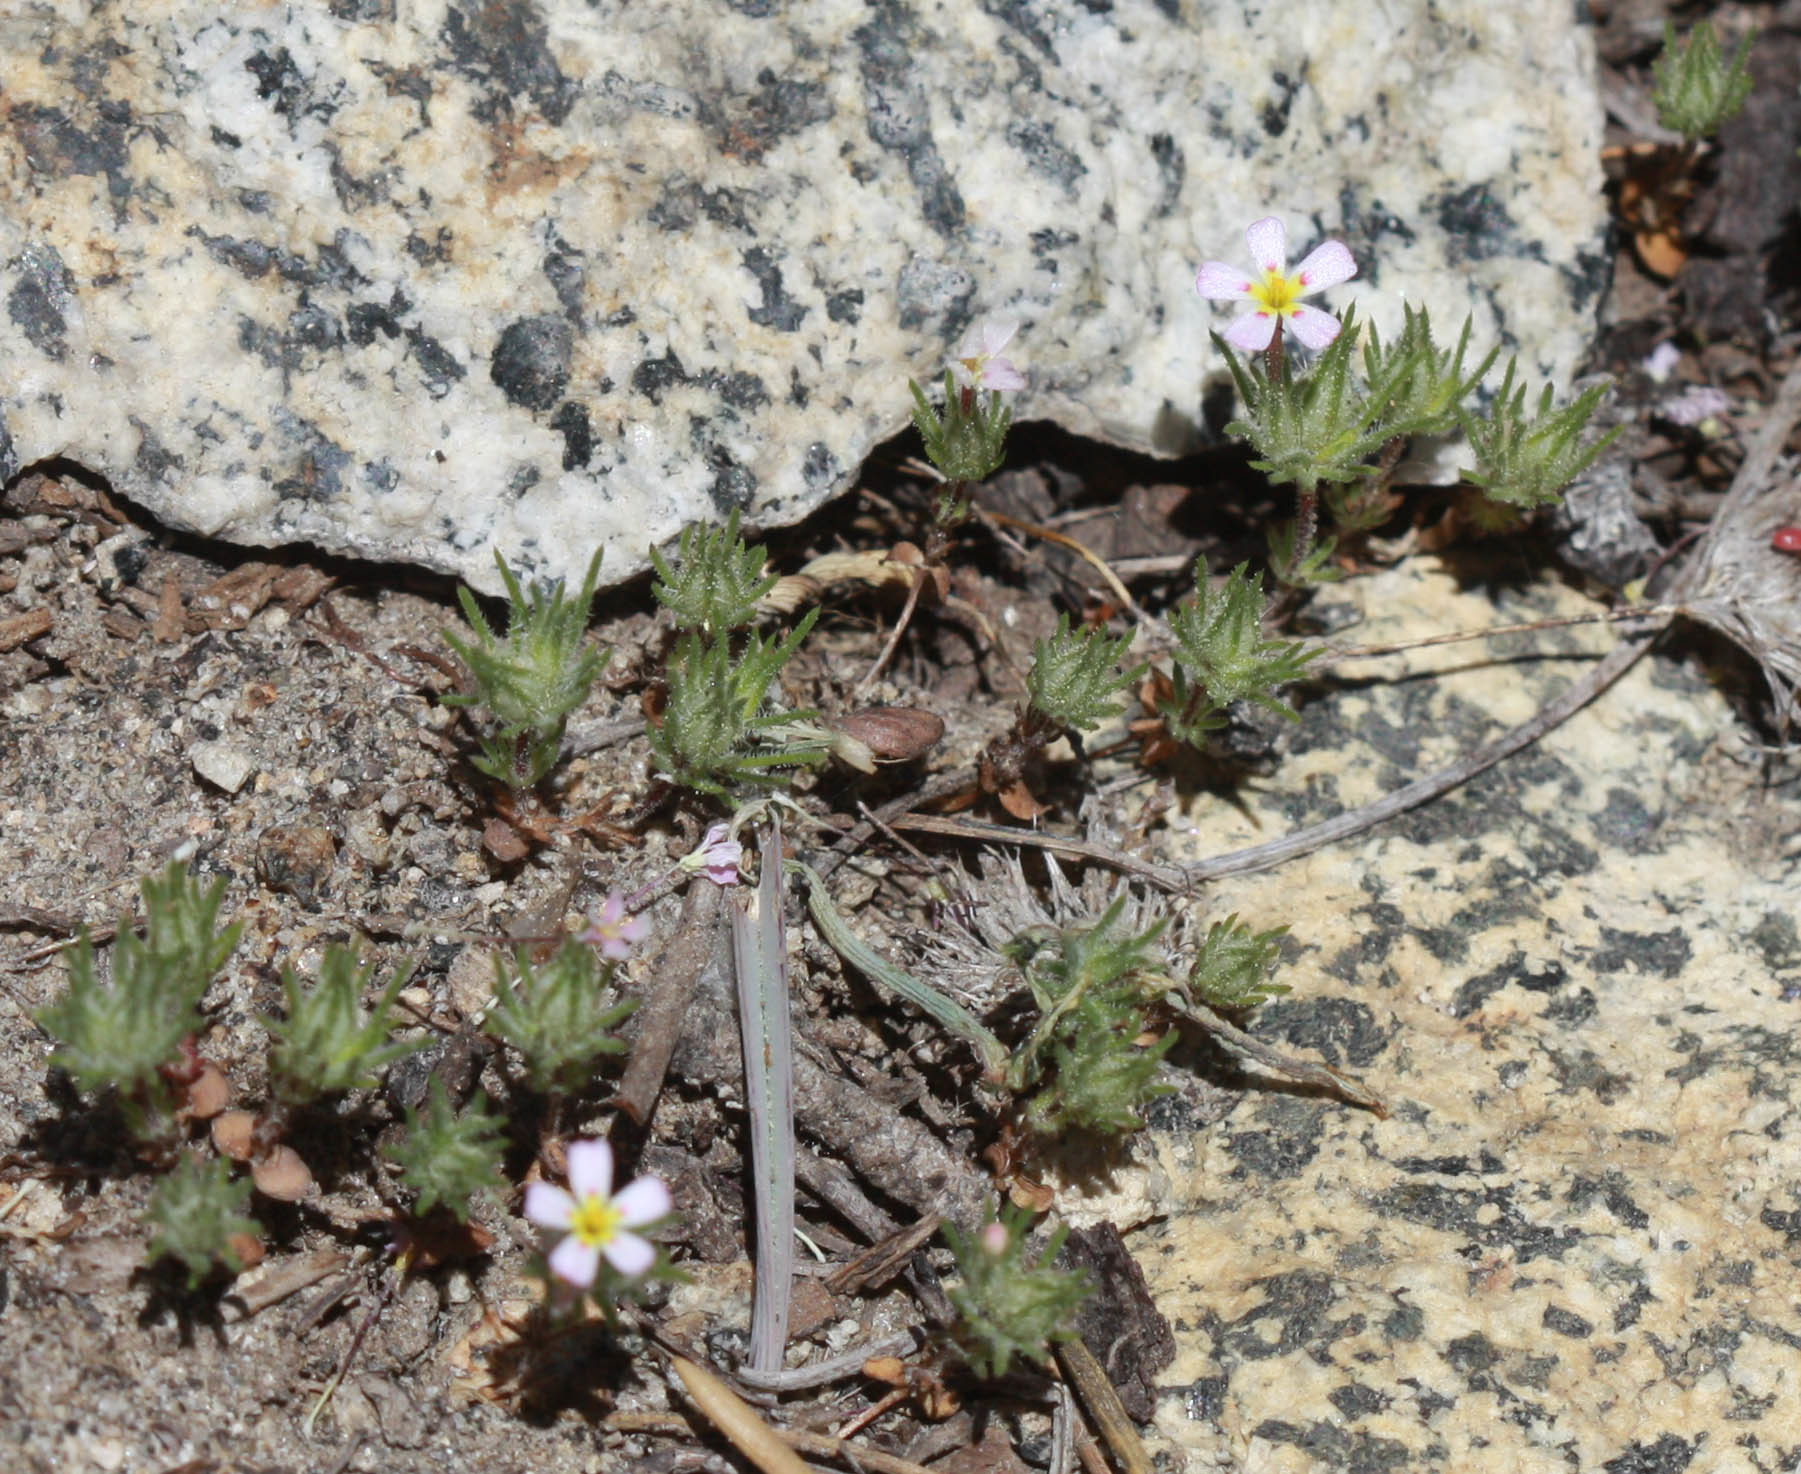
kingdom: Plantae
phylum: Tracheophyta
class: Magnoliopsida
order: Ericales
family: Polemoniaceae
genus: Leptosiphon
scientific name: Leptosiphon ciliatus
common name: Whiskerbrush
